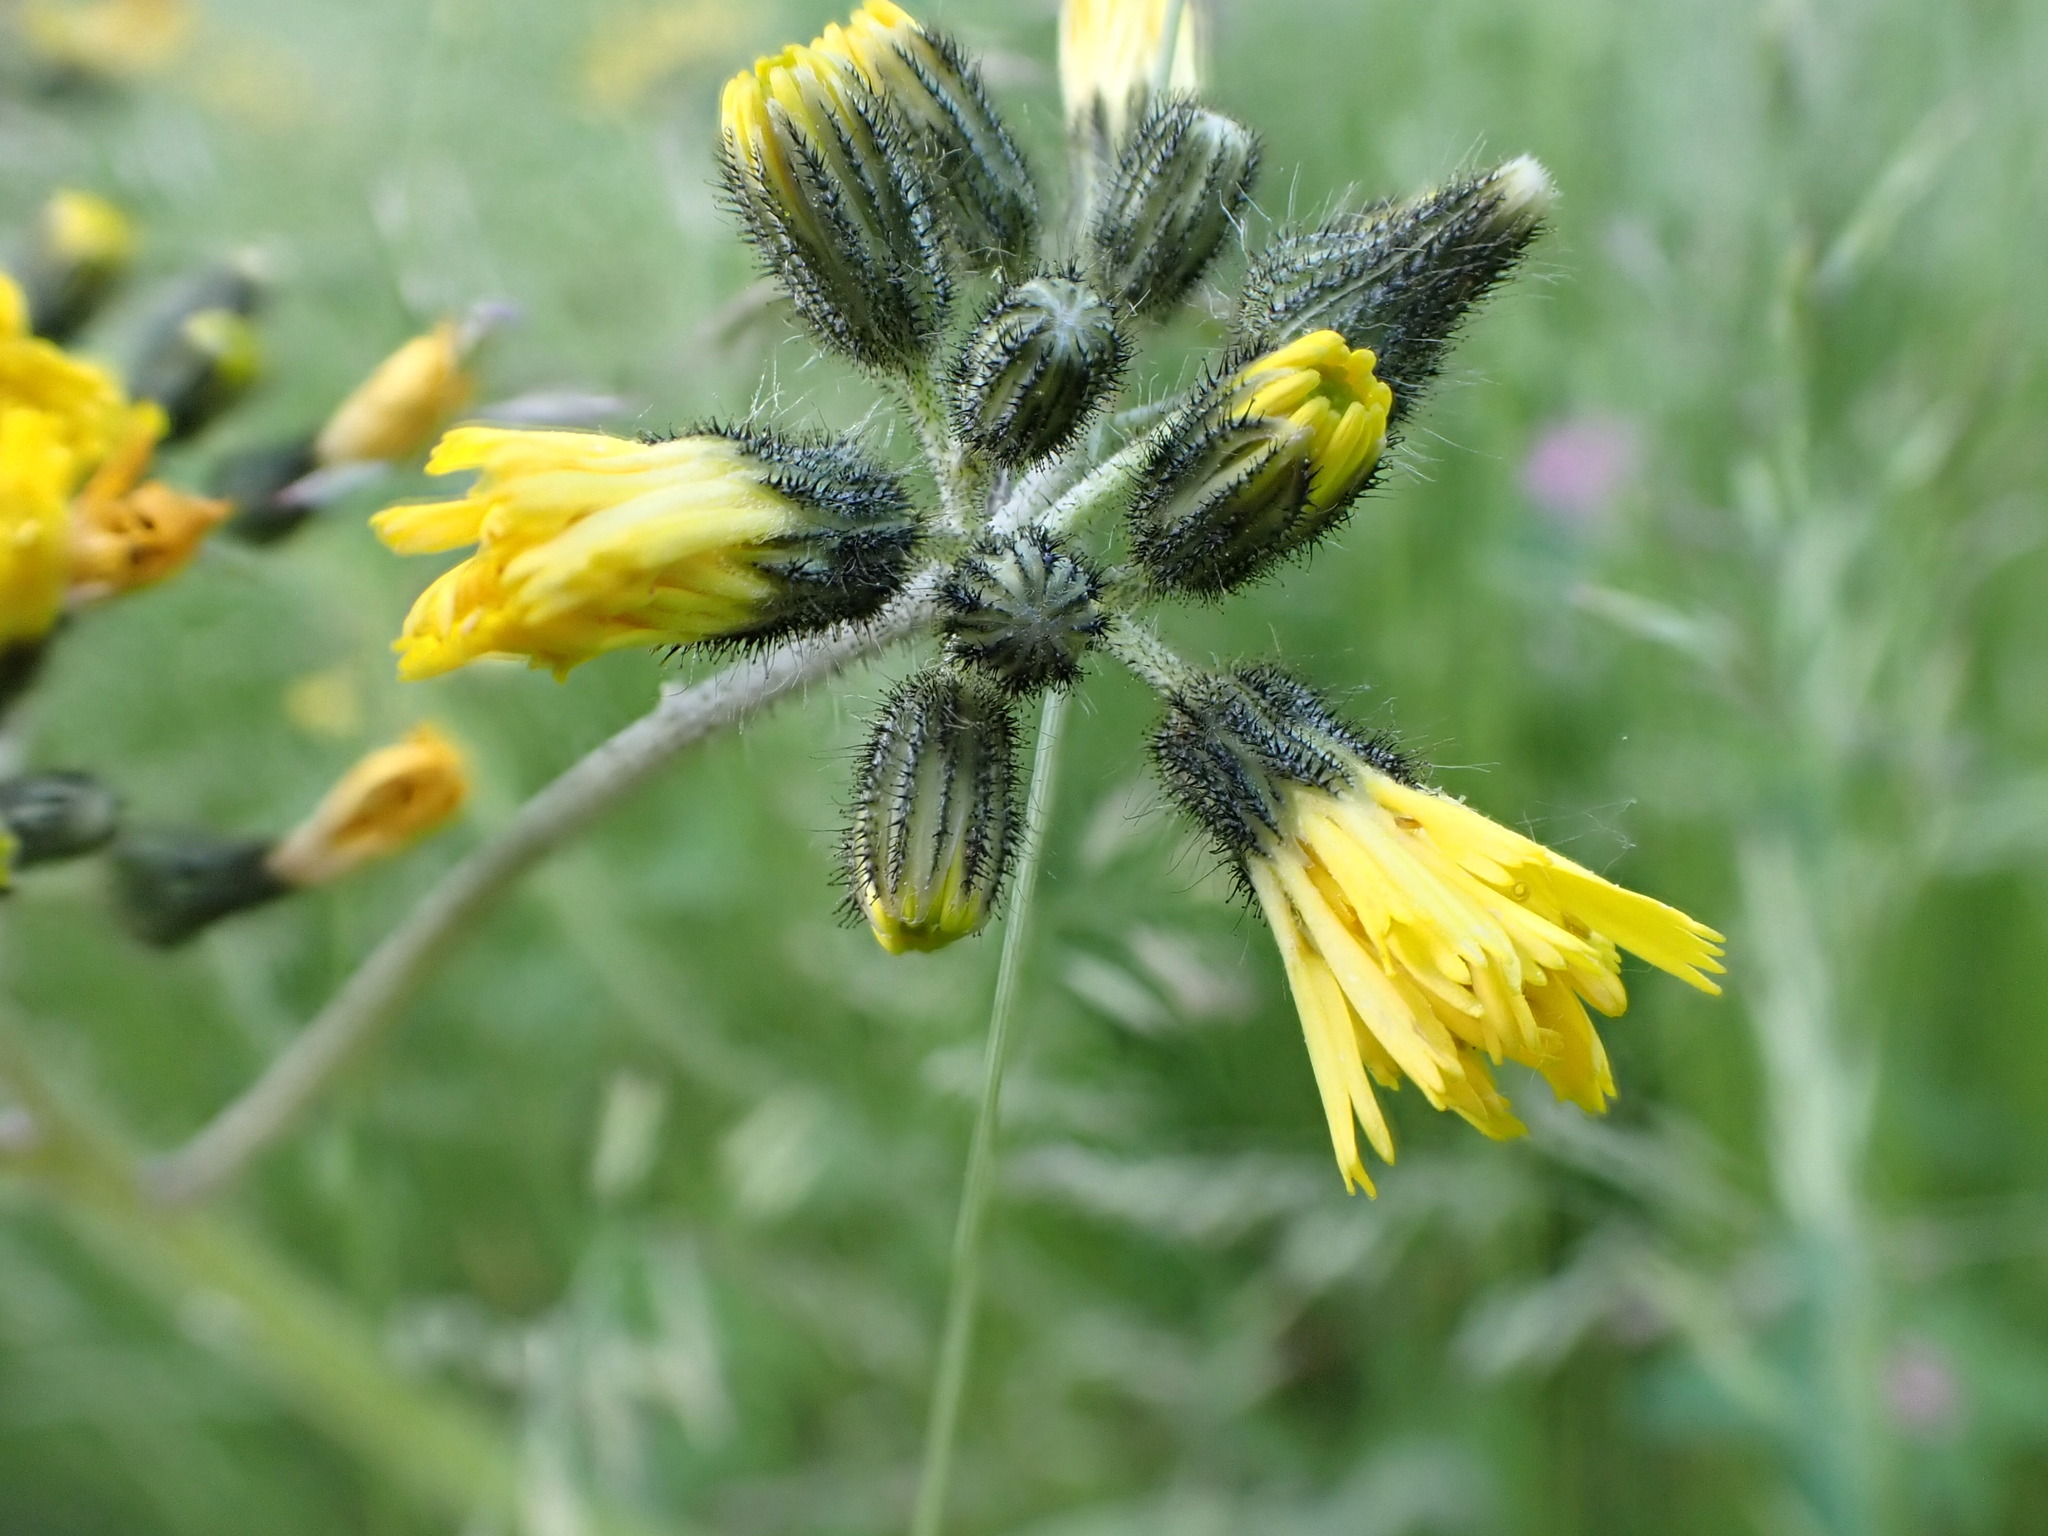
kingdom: Plantae
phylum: Tracheophyta
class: Magnoliopsida
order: Asterales
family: Asteraceae
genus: Pilosella
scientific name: Pilosella caespitosa
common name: Yellow fox-and-cubs
